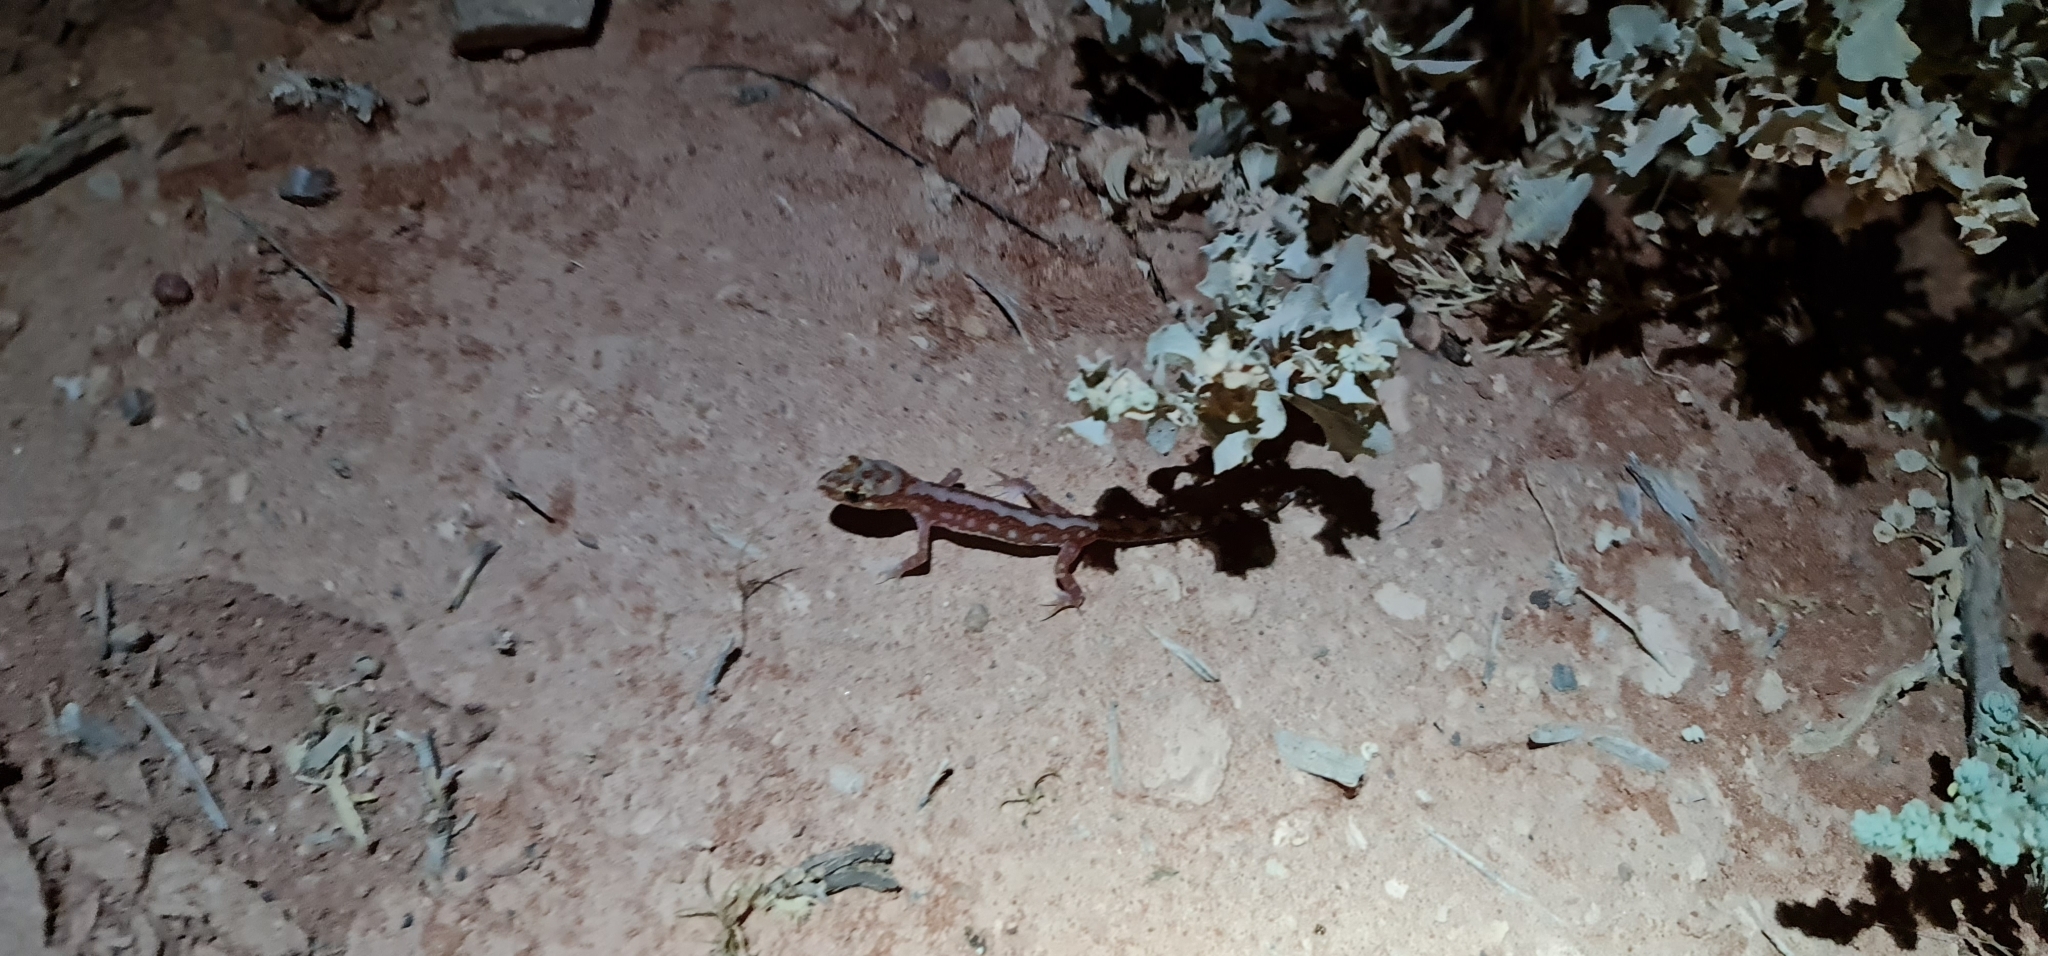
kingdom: Animalia
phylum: Chordata
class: Squamata
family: Diplodactylidae
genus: Lucasium
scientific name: Lucasium damaeum
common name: Beaded gecko
